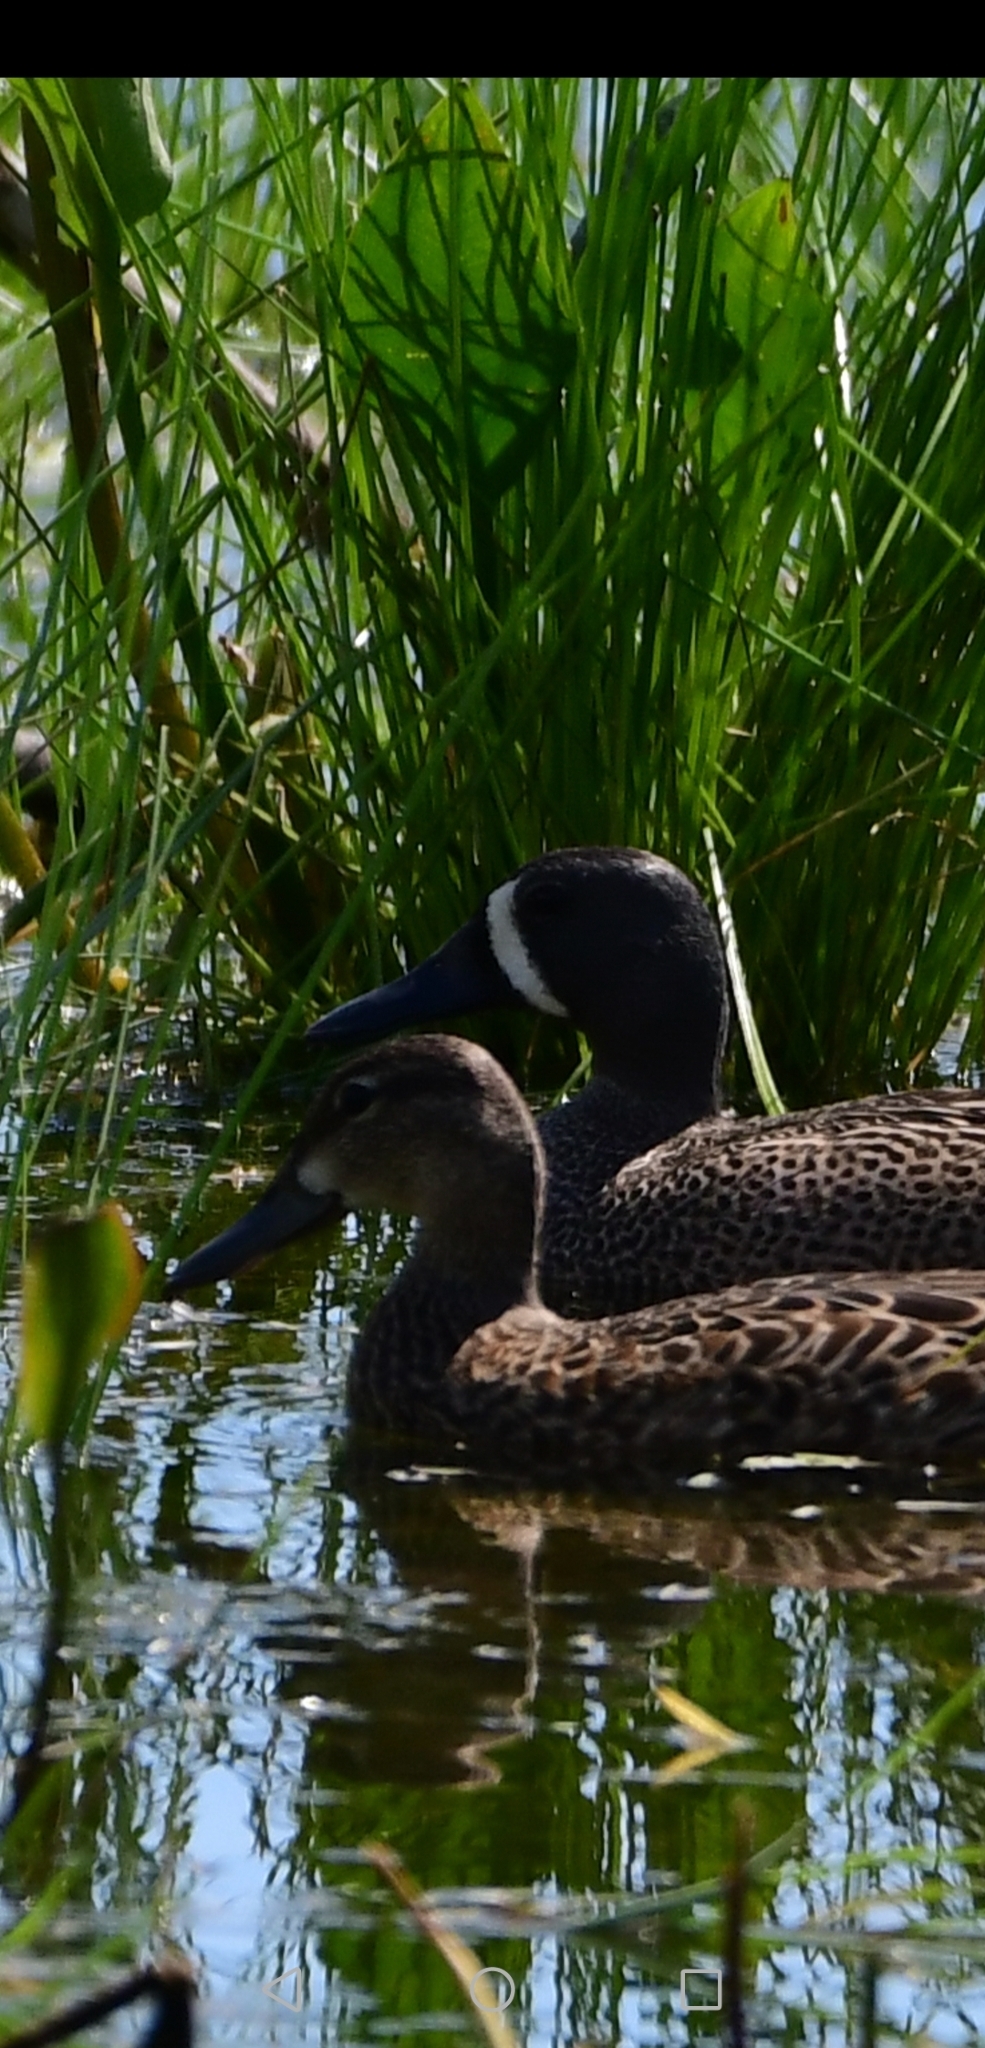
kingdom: Animalia
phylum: Chordata
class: Aves
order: Anseriformes
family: Anatidae
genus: Spatula
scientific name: Spatula discors
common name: Blue-winged teal
